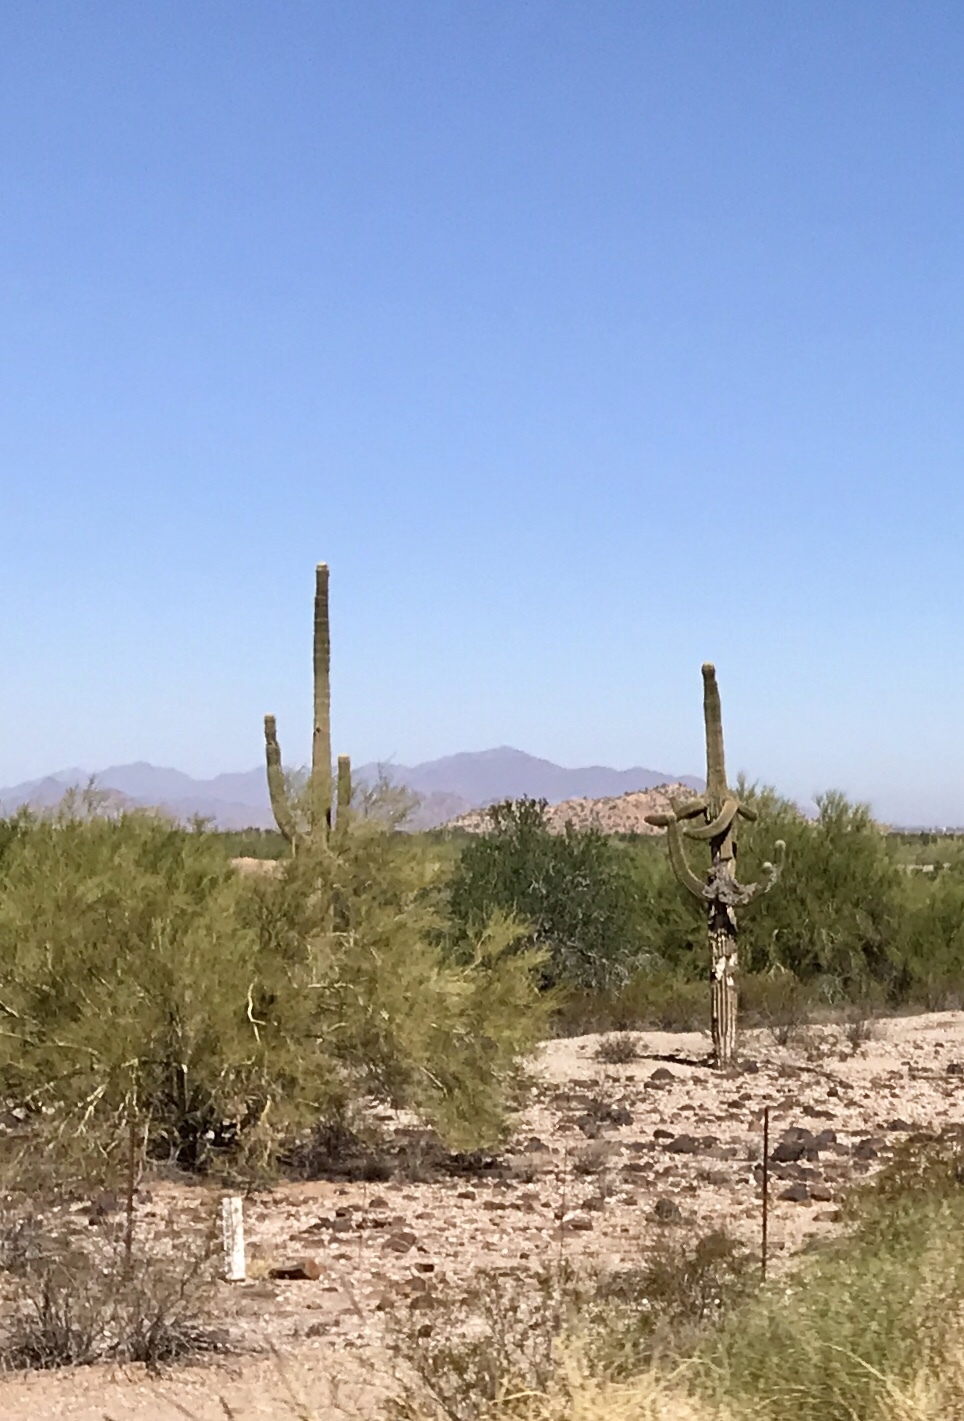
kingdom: Plantae
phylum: Tracheophyta
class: Magnoliopsida
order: Caryophyllales
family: Cactaceae
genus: Carnegiea
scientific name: Carnegiea gigantea
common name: Saguaro
